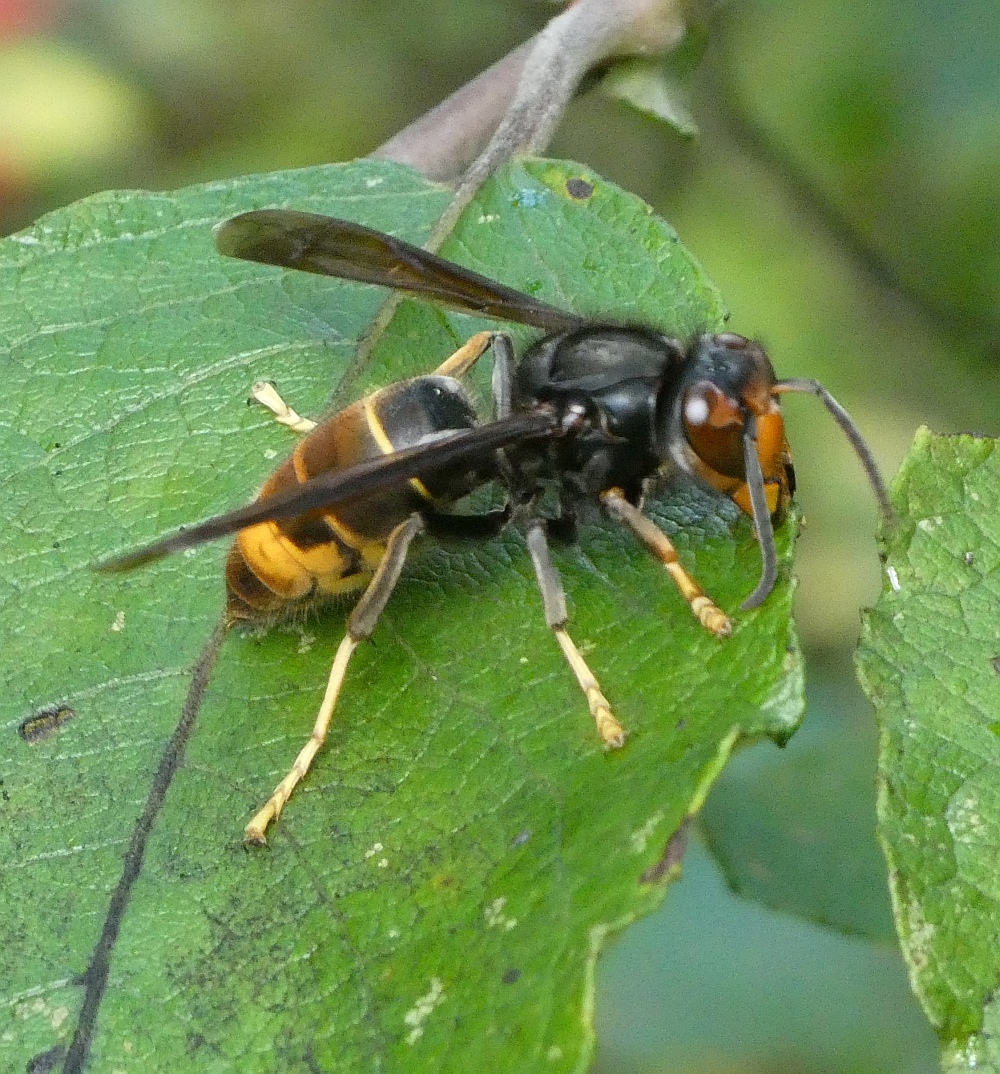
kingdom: Animalia
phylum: Arthropoda
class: Insecta
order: Hymenoptera
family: Vespidae
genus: Vespa
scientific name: Vespa velutina
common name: Asian hornet
